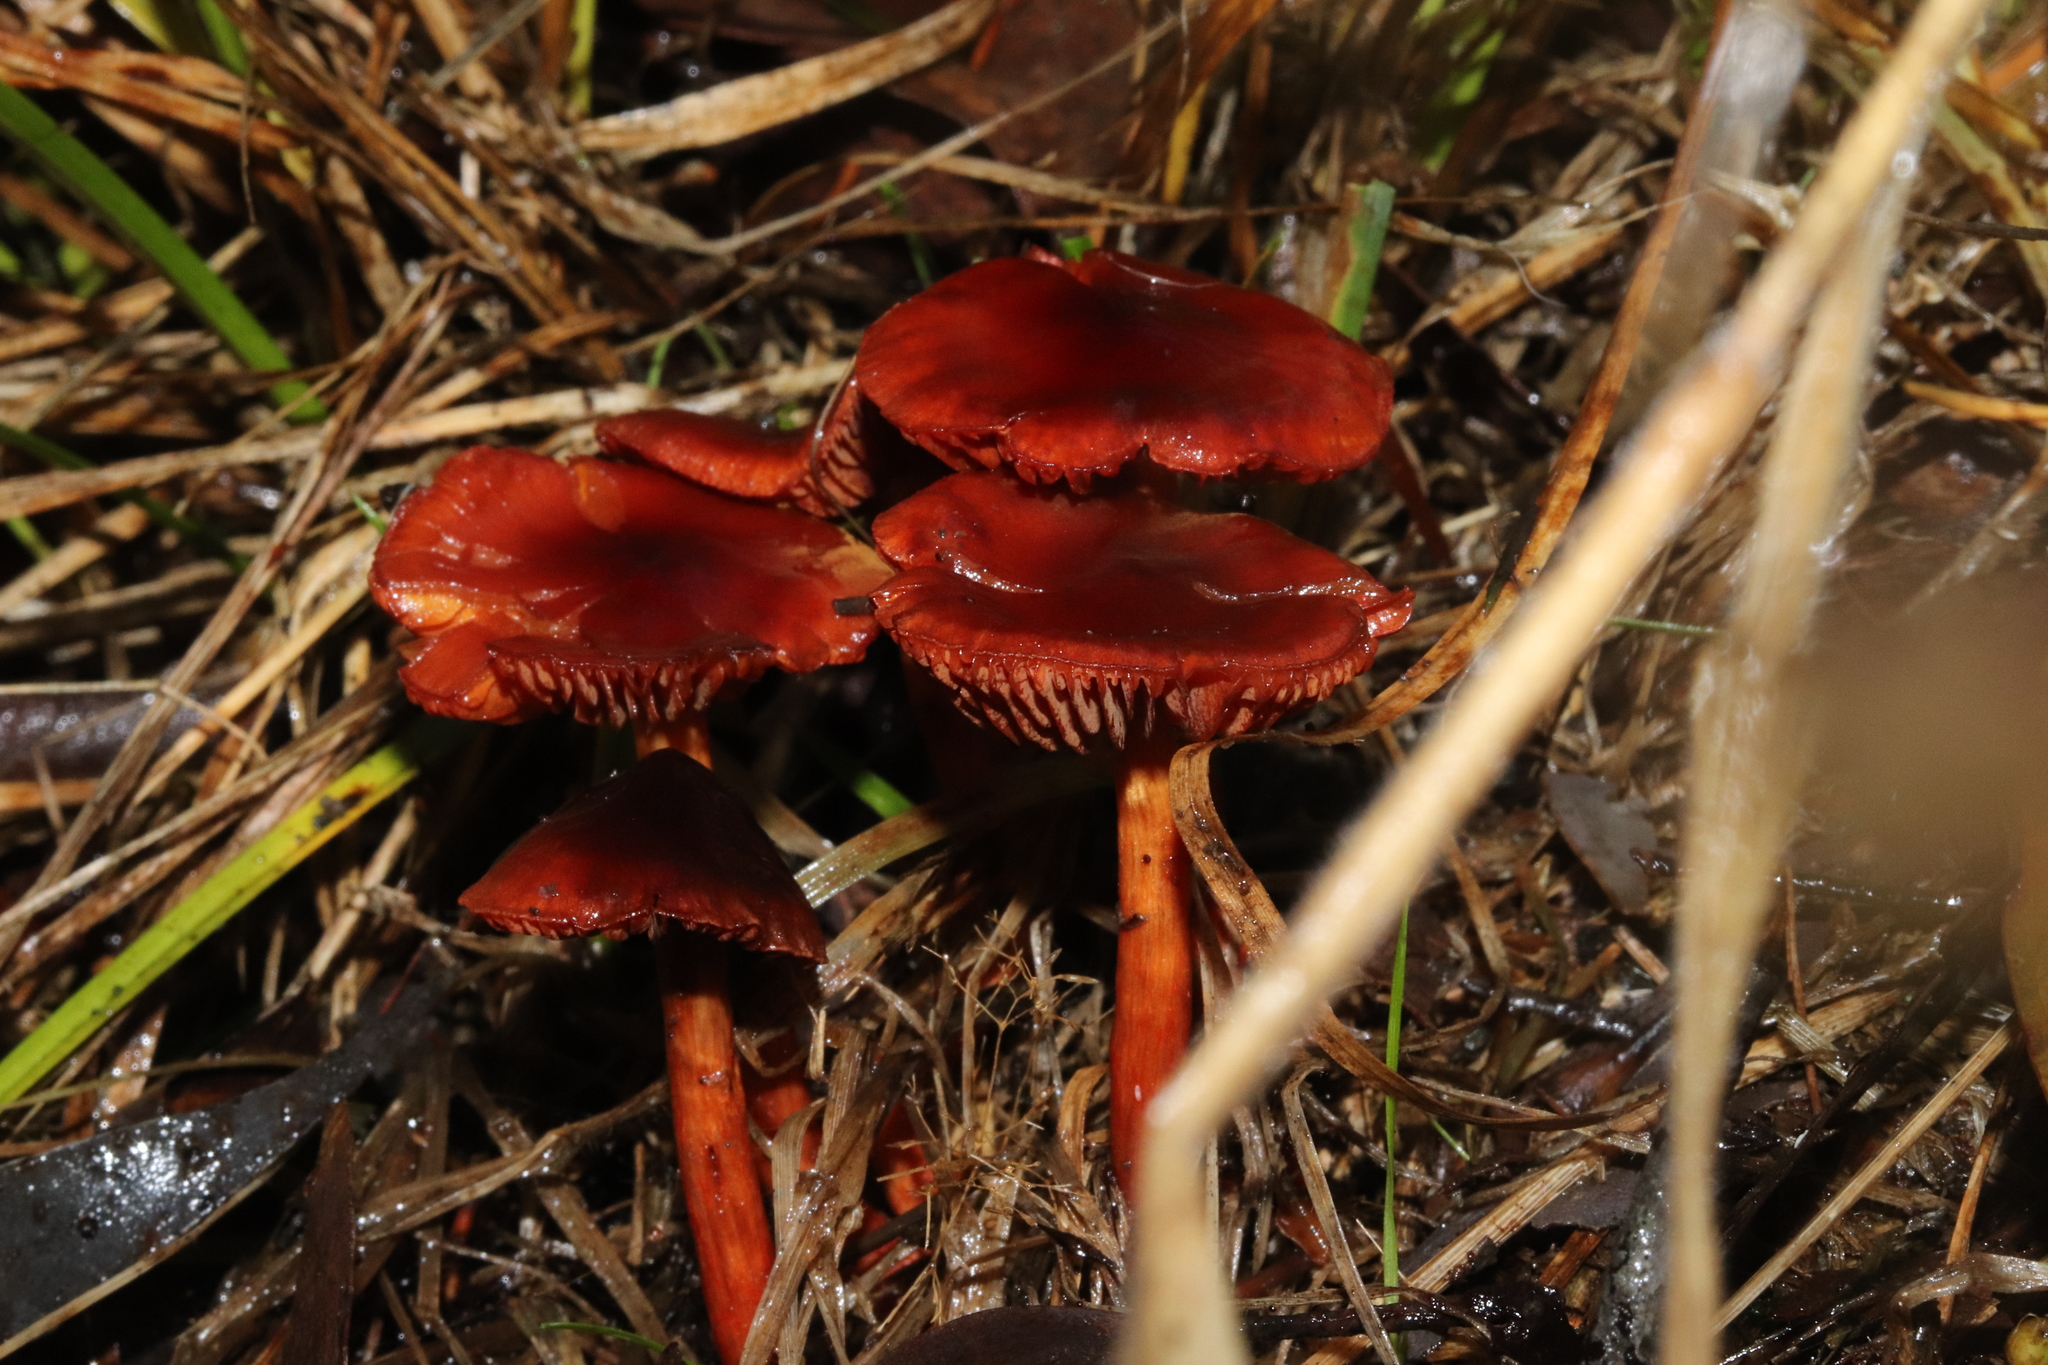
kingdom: Fungi
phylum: Basidiomycota
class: Agaricomycetes
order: Agaricales
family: Cortinariaceae
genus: Cortinarius
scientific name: Cortinarius
